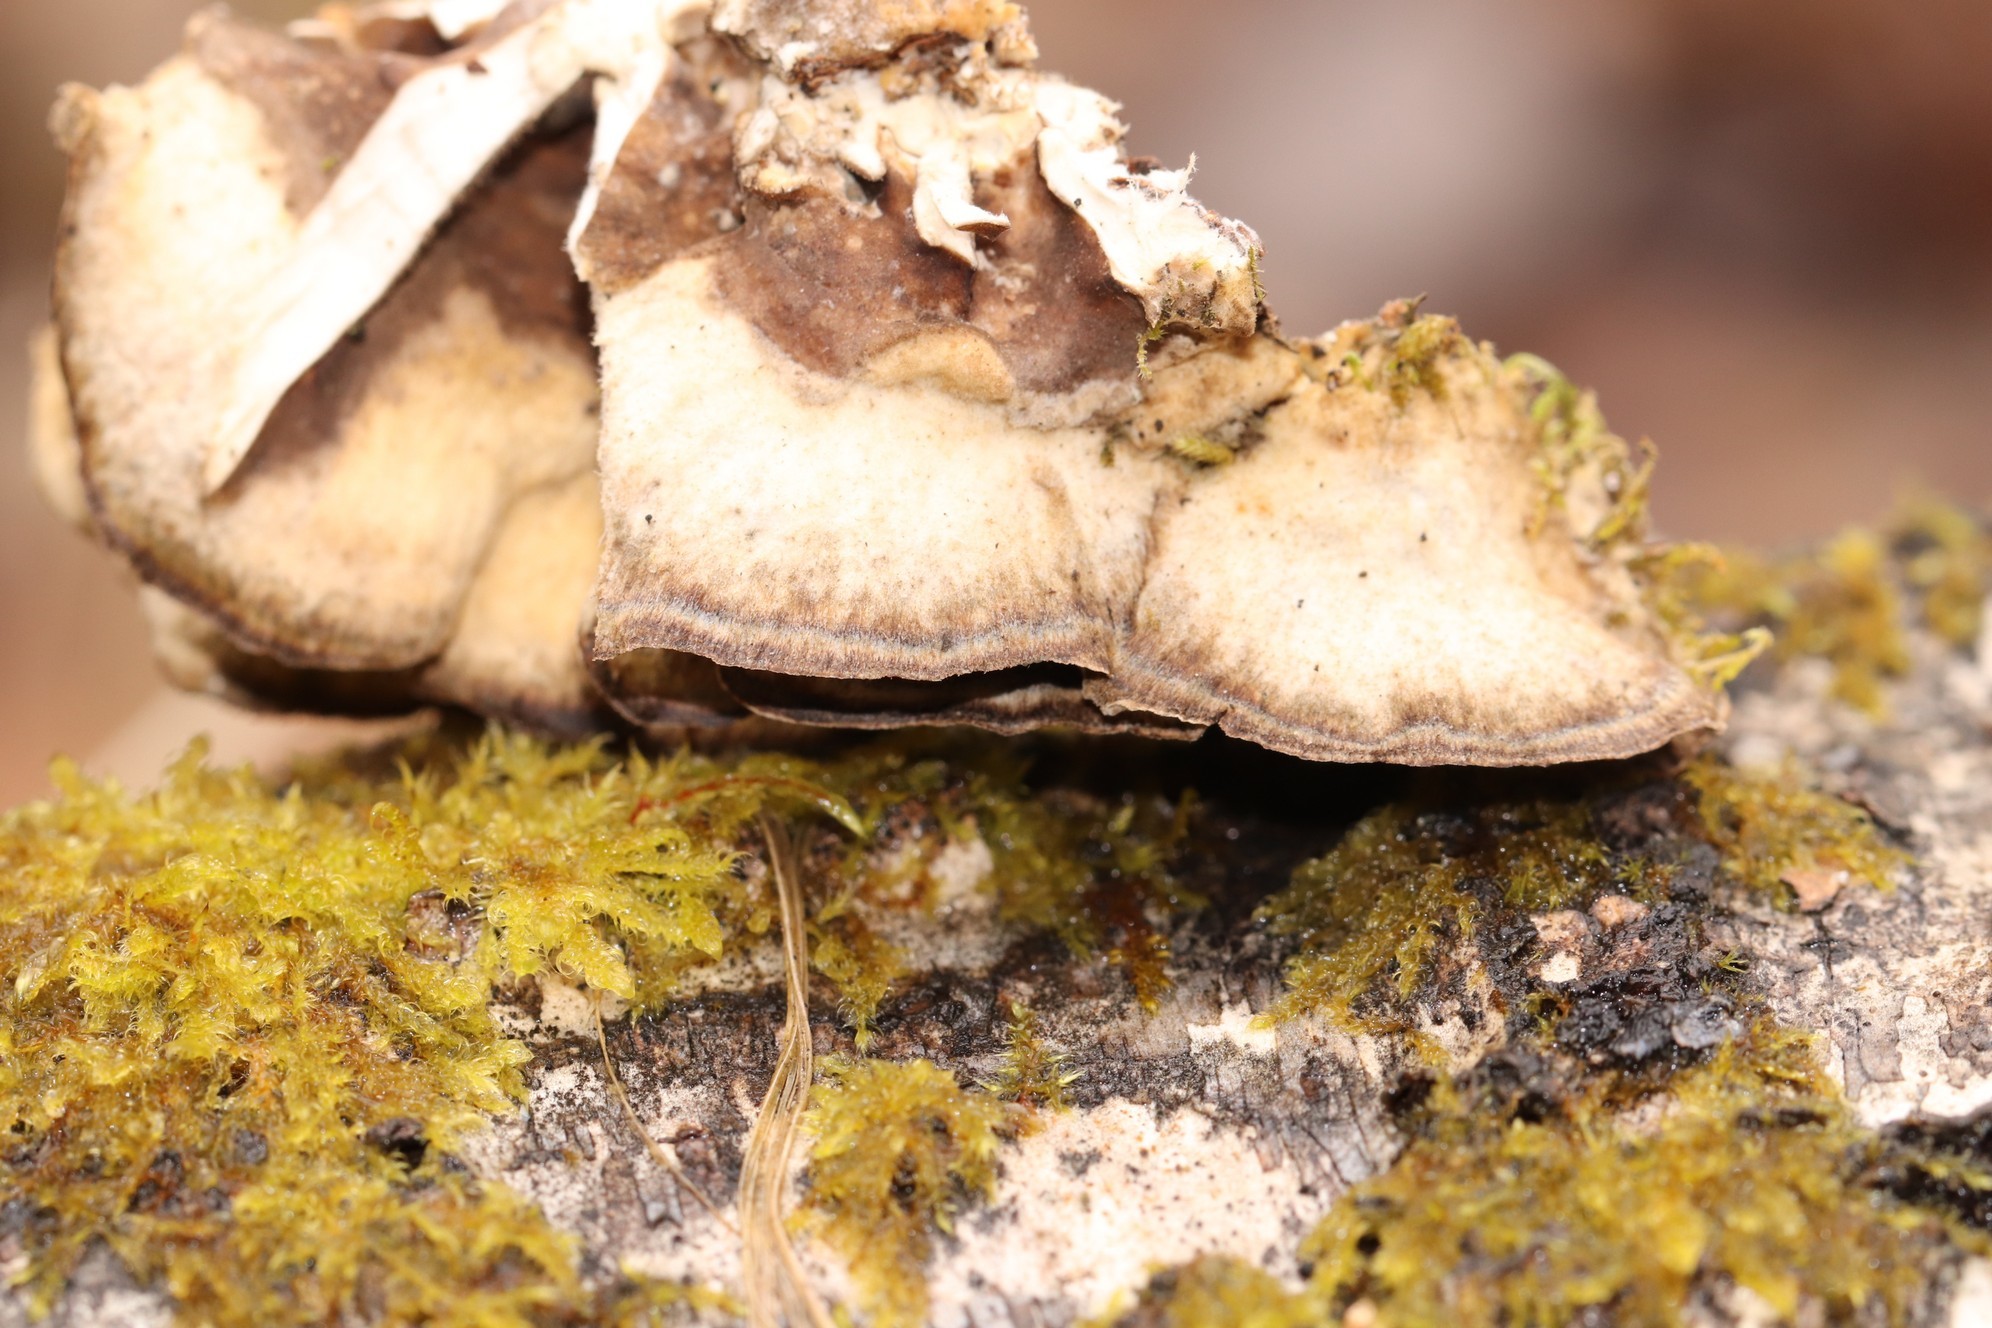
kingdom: Fungi
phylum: Basidiomycota
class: Agaricomycetes
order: Polyporales
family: Phanerochaetaceae
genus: Bjerkandera
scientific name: Bjerkandera adusta
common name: Smoky bracket
